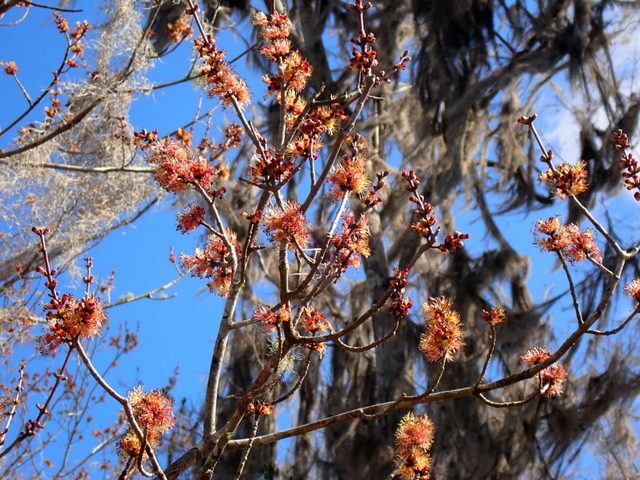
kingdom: Plantae
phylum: Tracheophyta
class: Magnoliopsida
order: Sapindales
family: Sapindaceae
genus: Acer
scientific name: Acer rubrum
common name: Red maple
